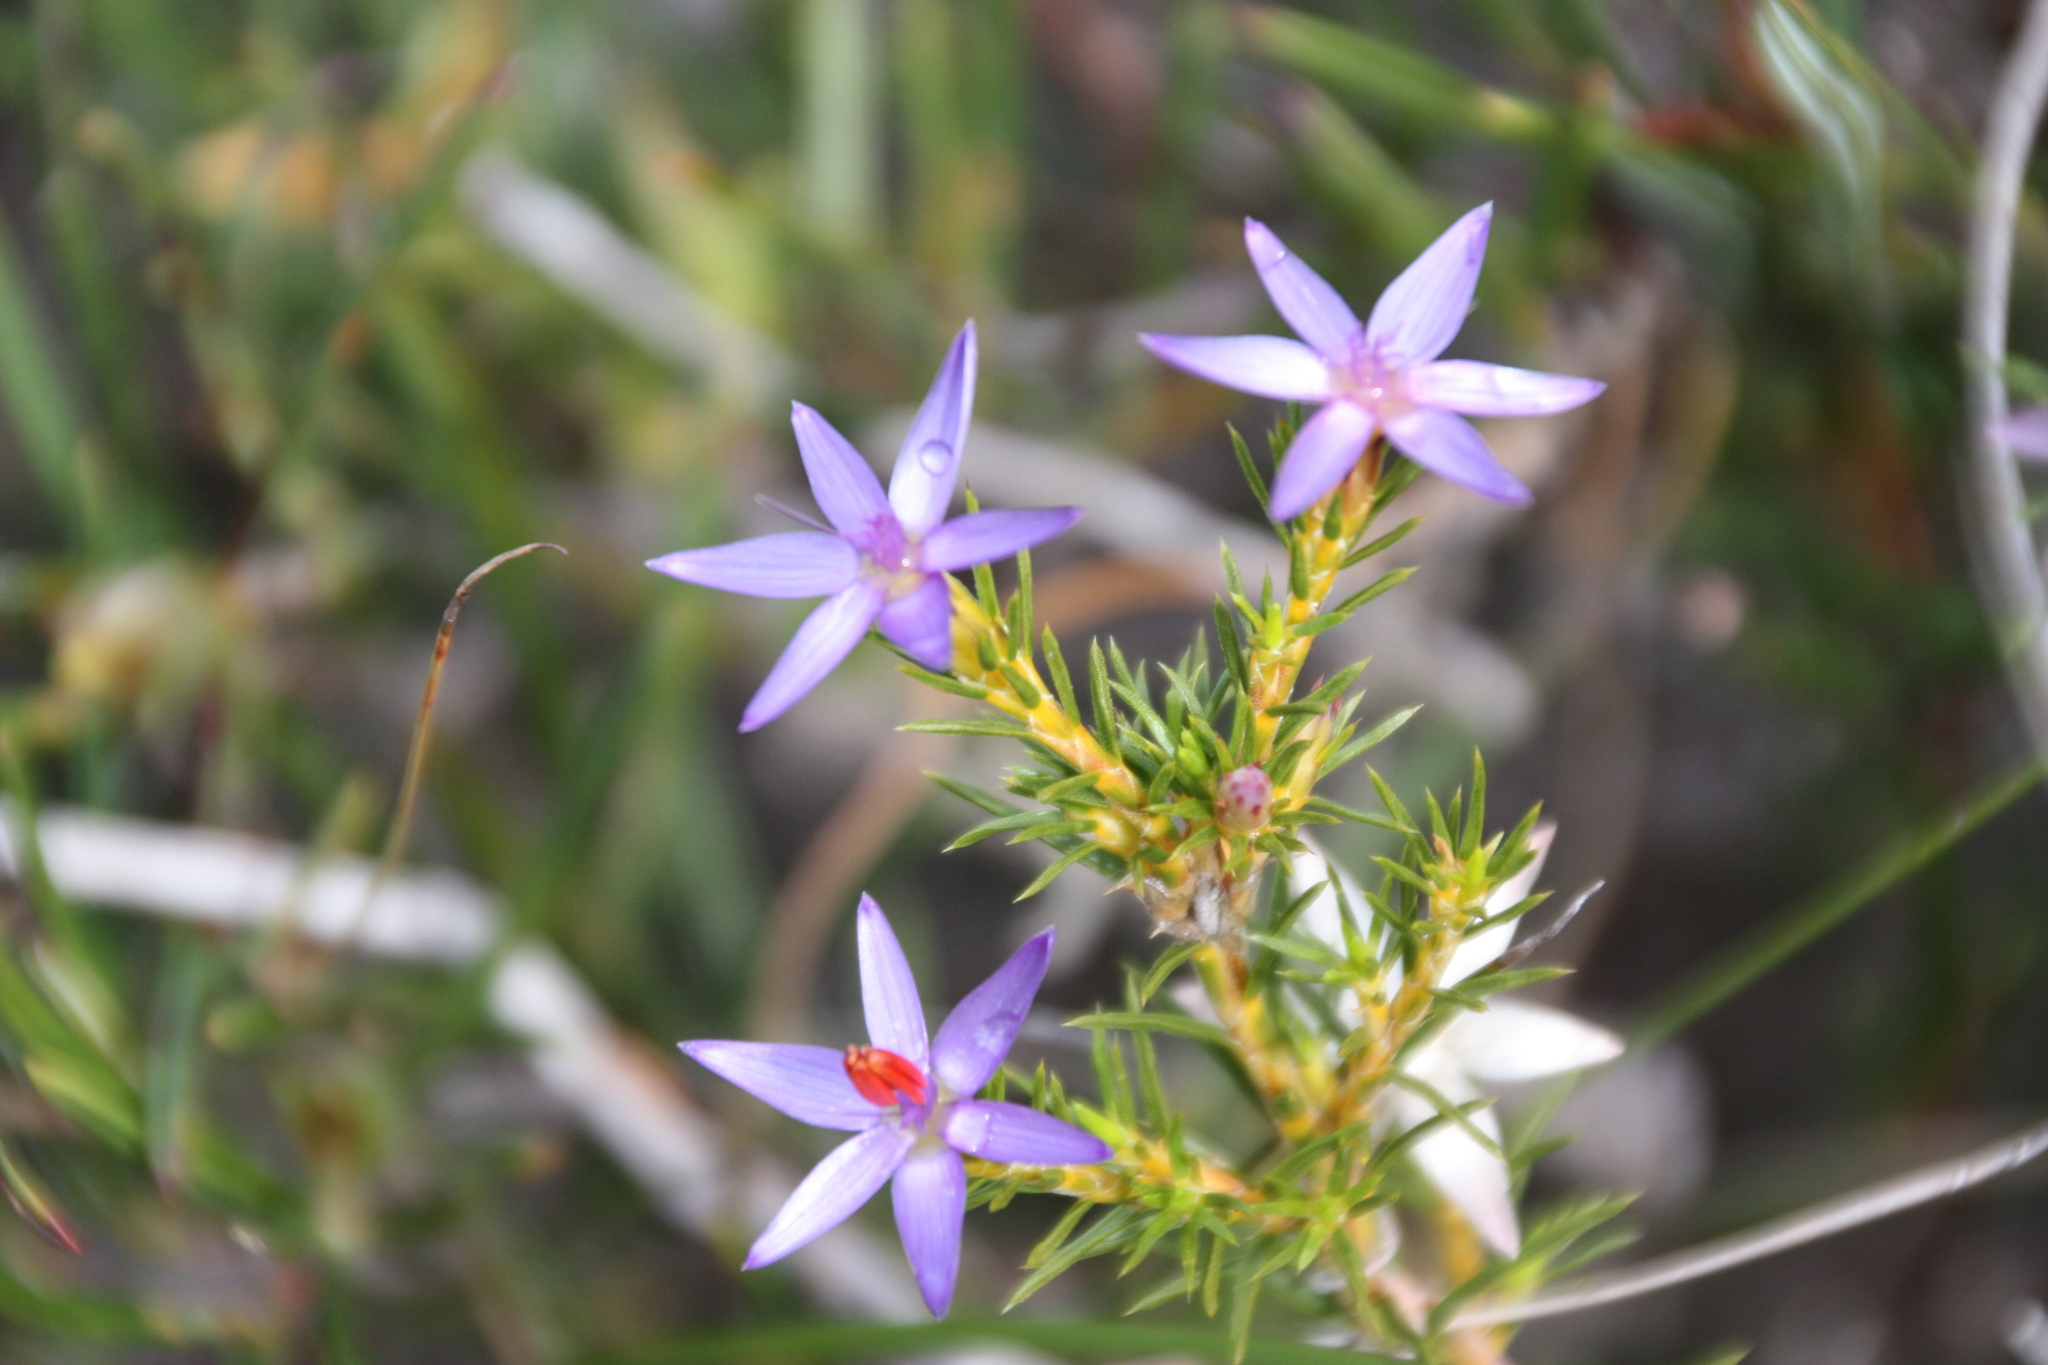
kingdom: Plantae
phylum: Tracheophyta
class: Liliopsida
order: Arecales
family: Dasypogonaceae
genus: Calectasia
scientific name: Calectasia narragara
